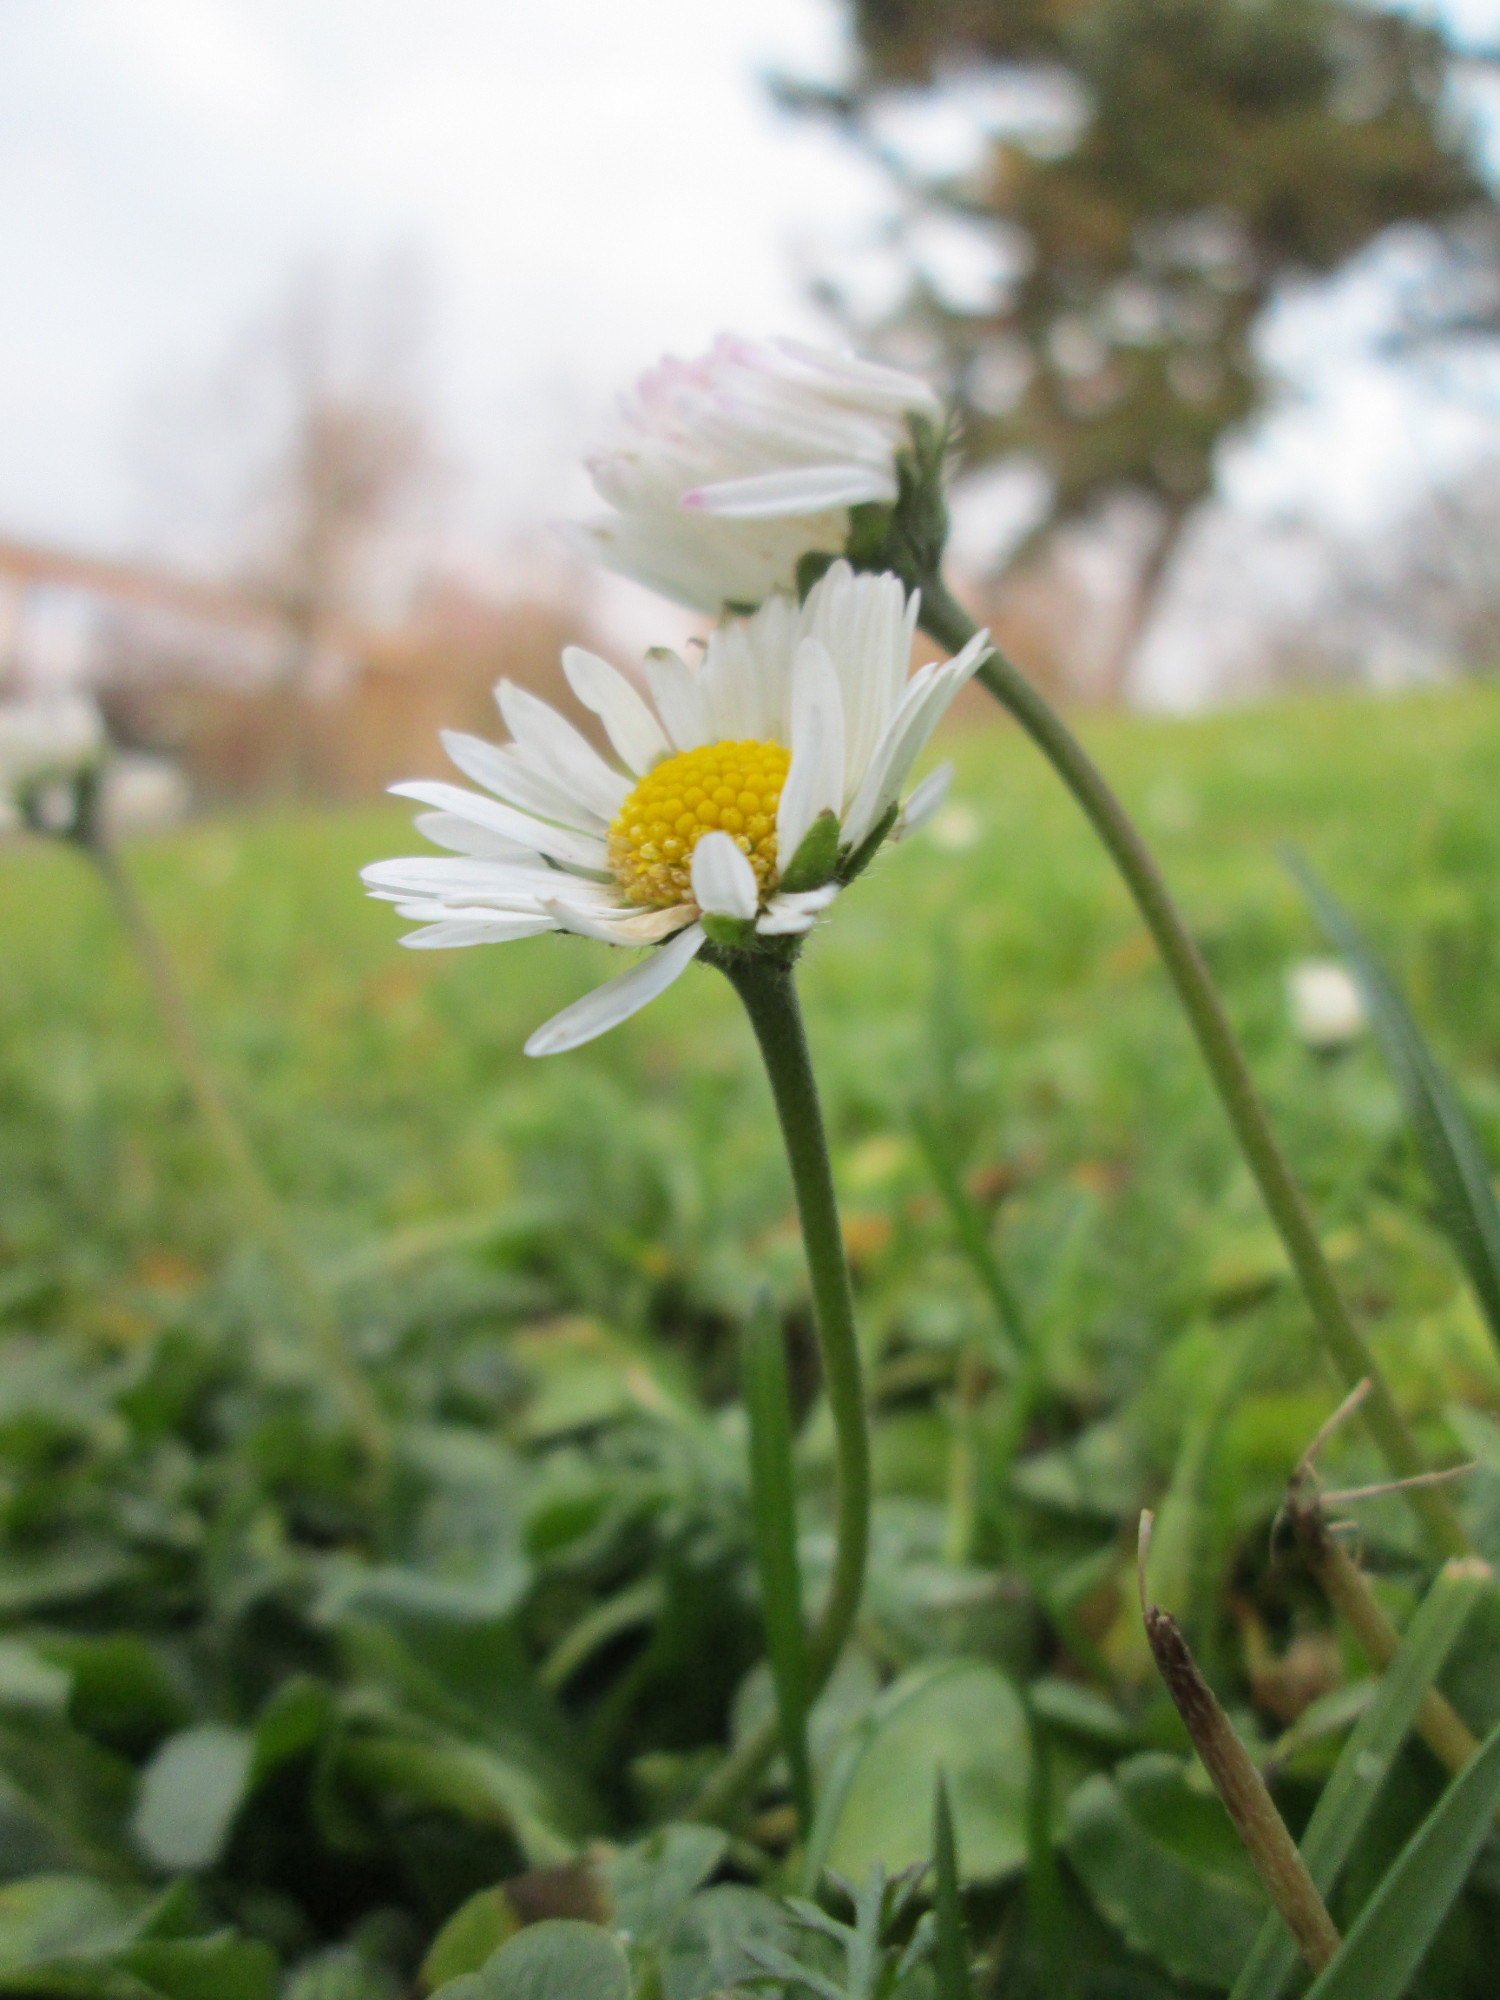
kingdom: Plantae
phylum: Tracheophyta
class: Magnoliopsida
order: Asterales
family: Asteraceae
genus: Bellis
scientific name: Bellis perennis
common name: Lawndaisy
